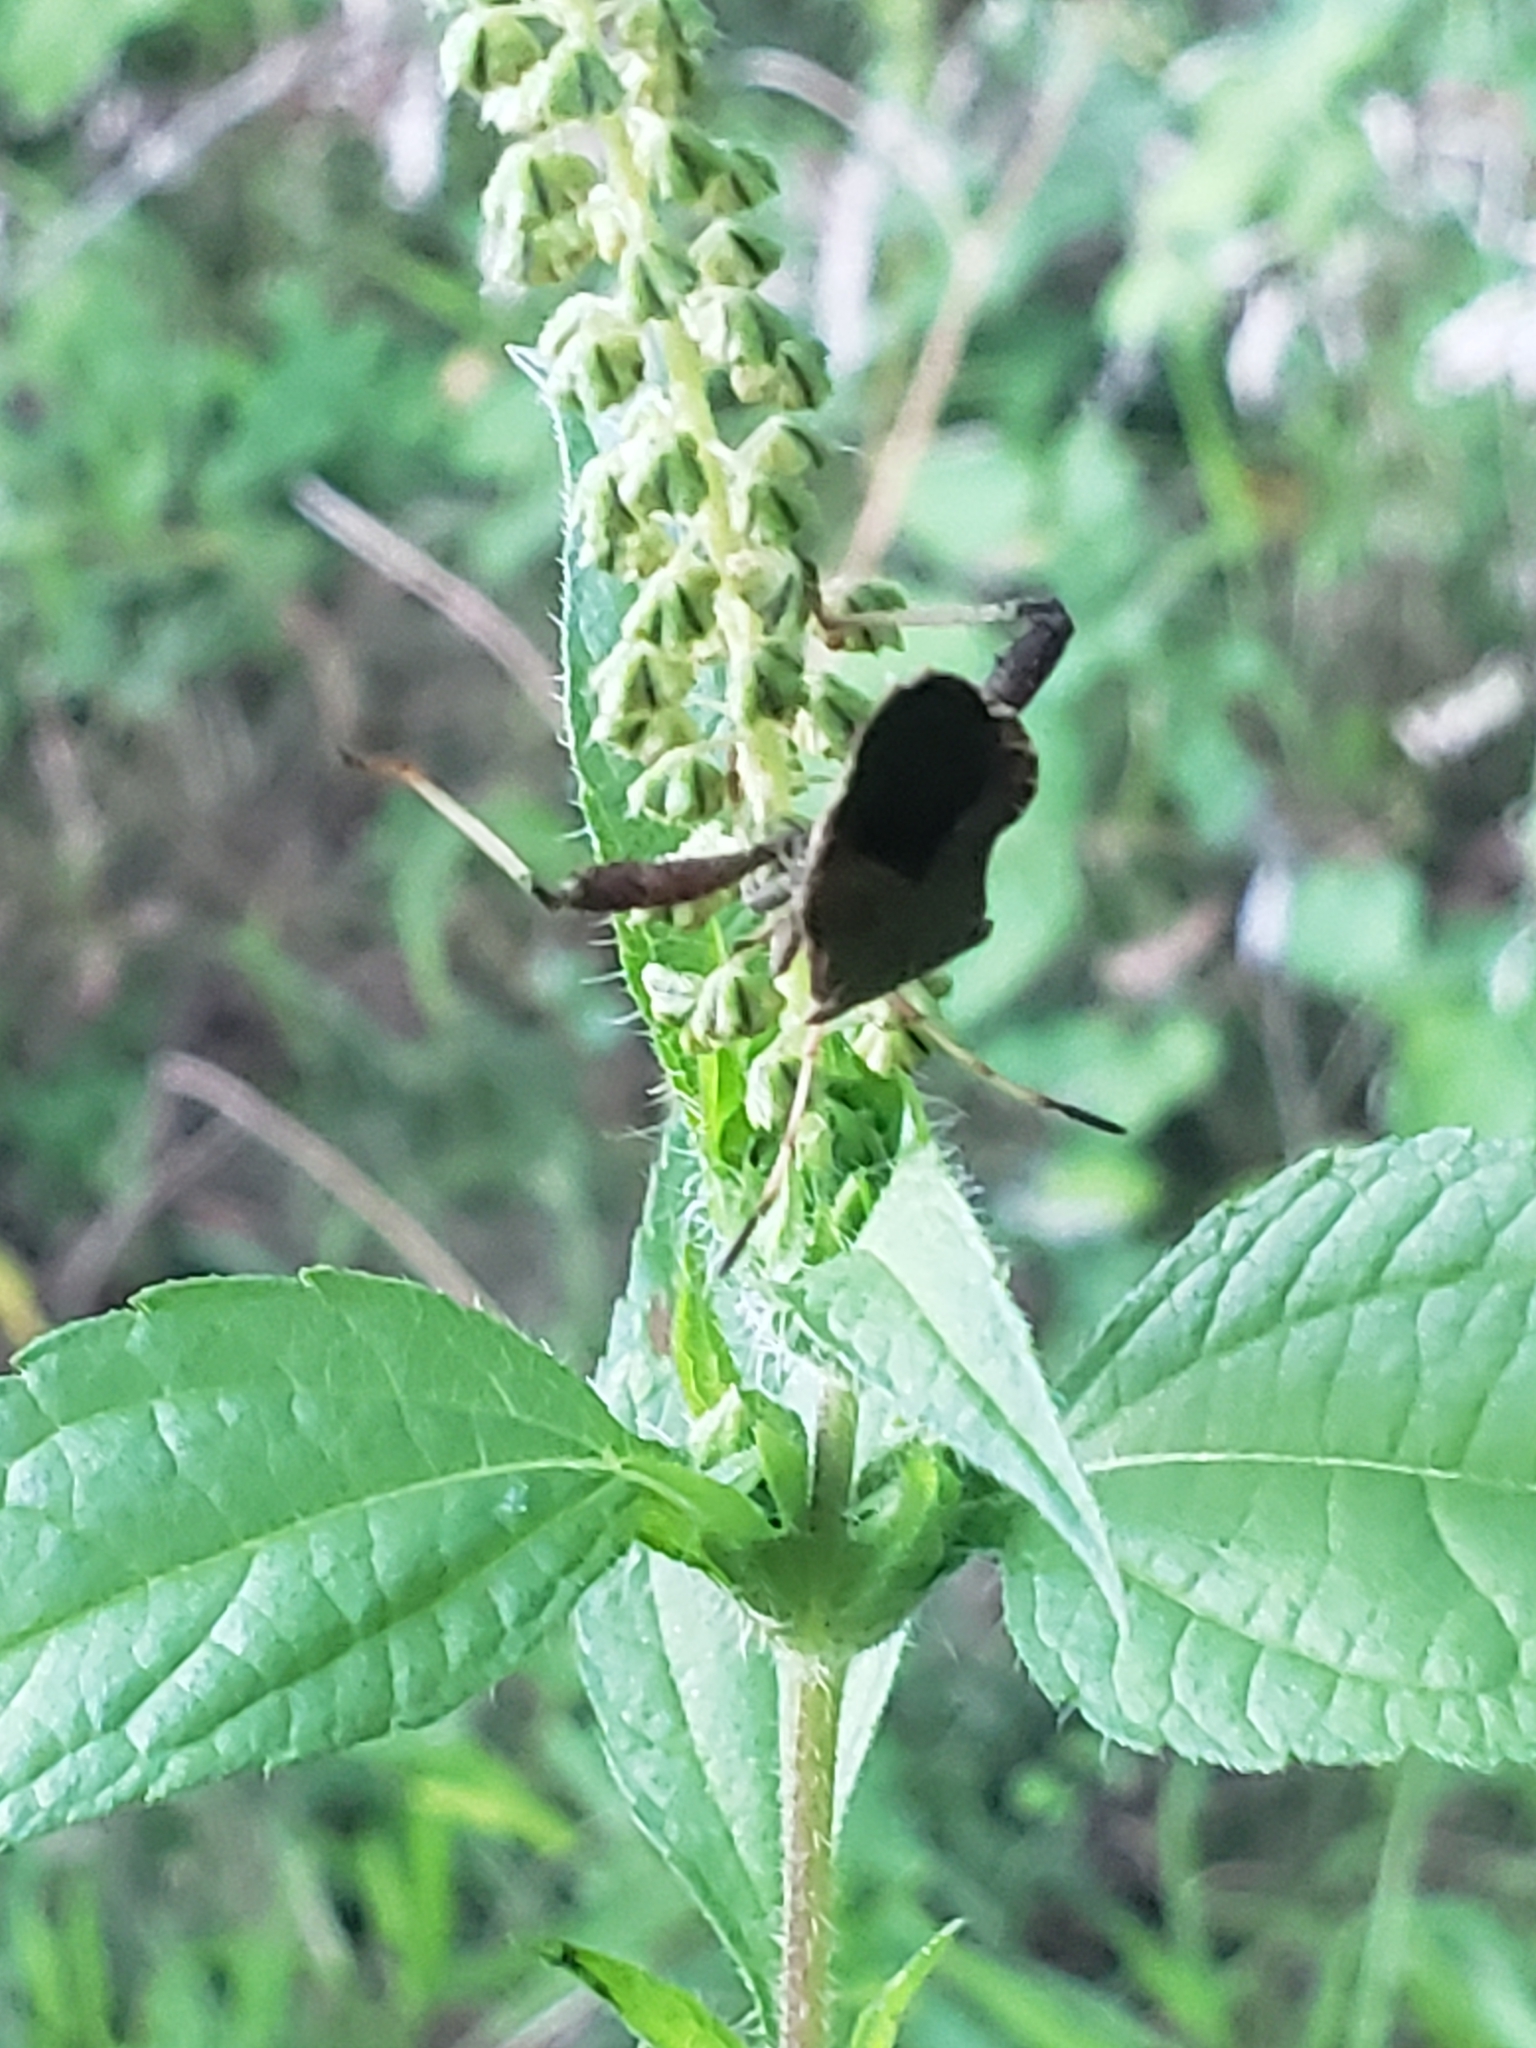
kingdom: Animalia
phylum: Arthropoda
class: Insecta
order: Hemiptera
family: Coreidae
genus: Euthochtha
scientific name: Euthochtha galeator
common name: Helmeted squash bug
